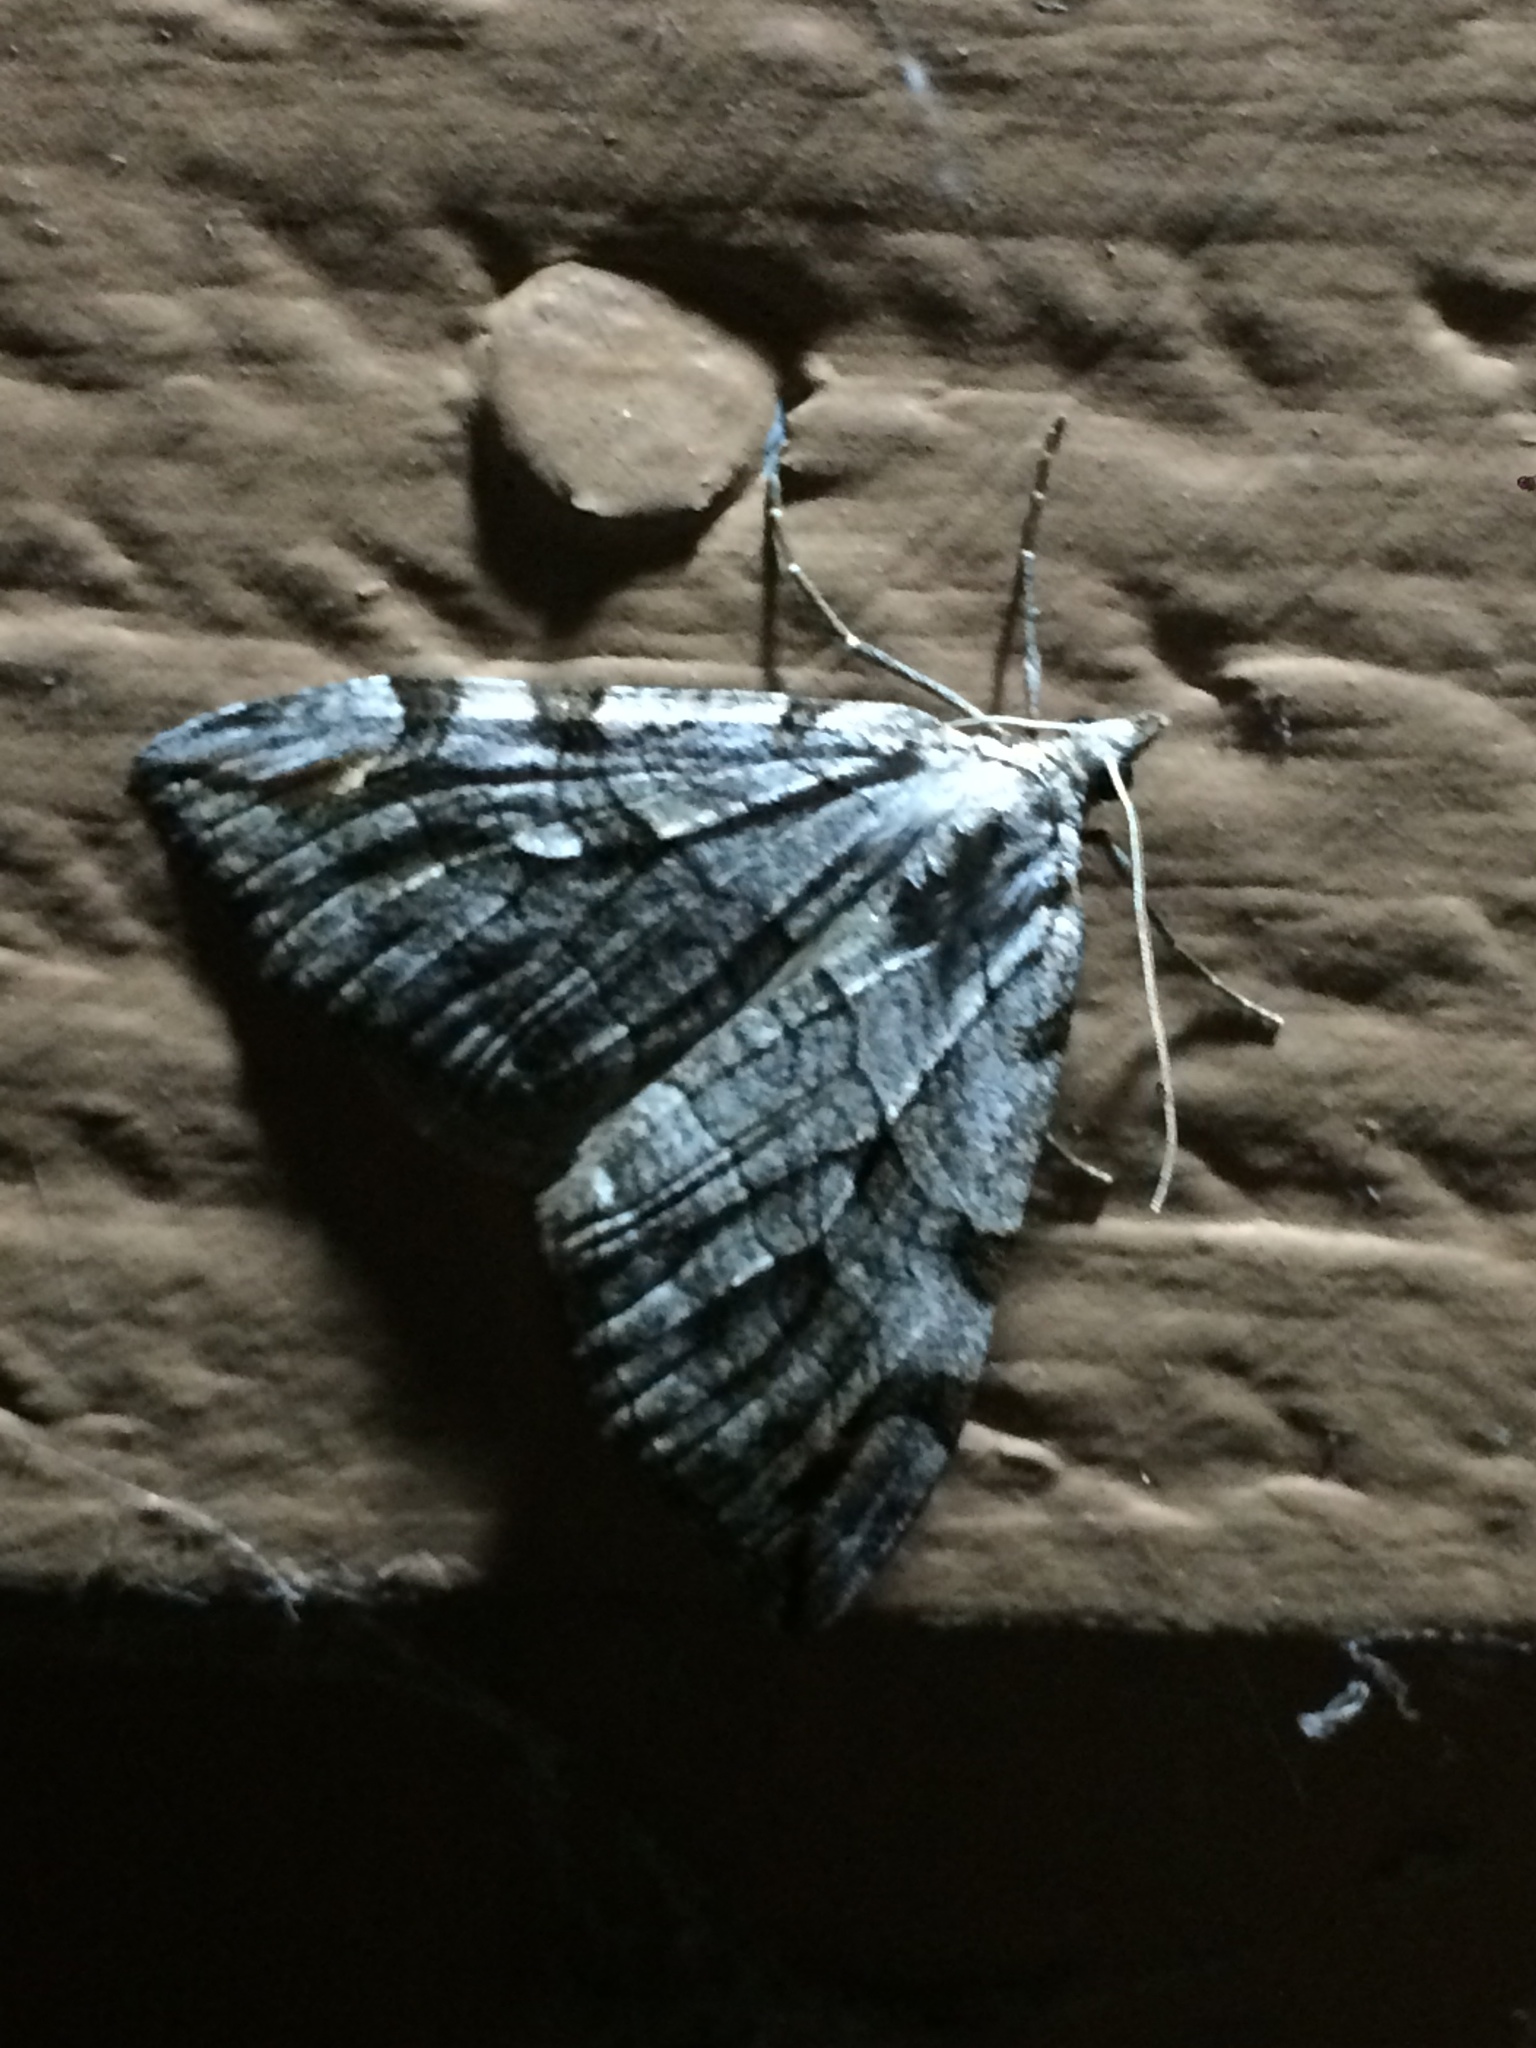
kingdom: Animalia
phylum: Arthropoda
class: Insecta
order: Lepidoptera
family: Geometridae
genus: Aplocera
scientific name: Aplocera plagiata
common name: Treble-bar
